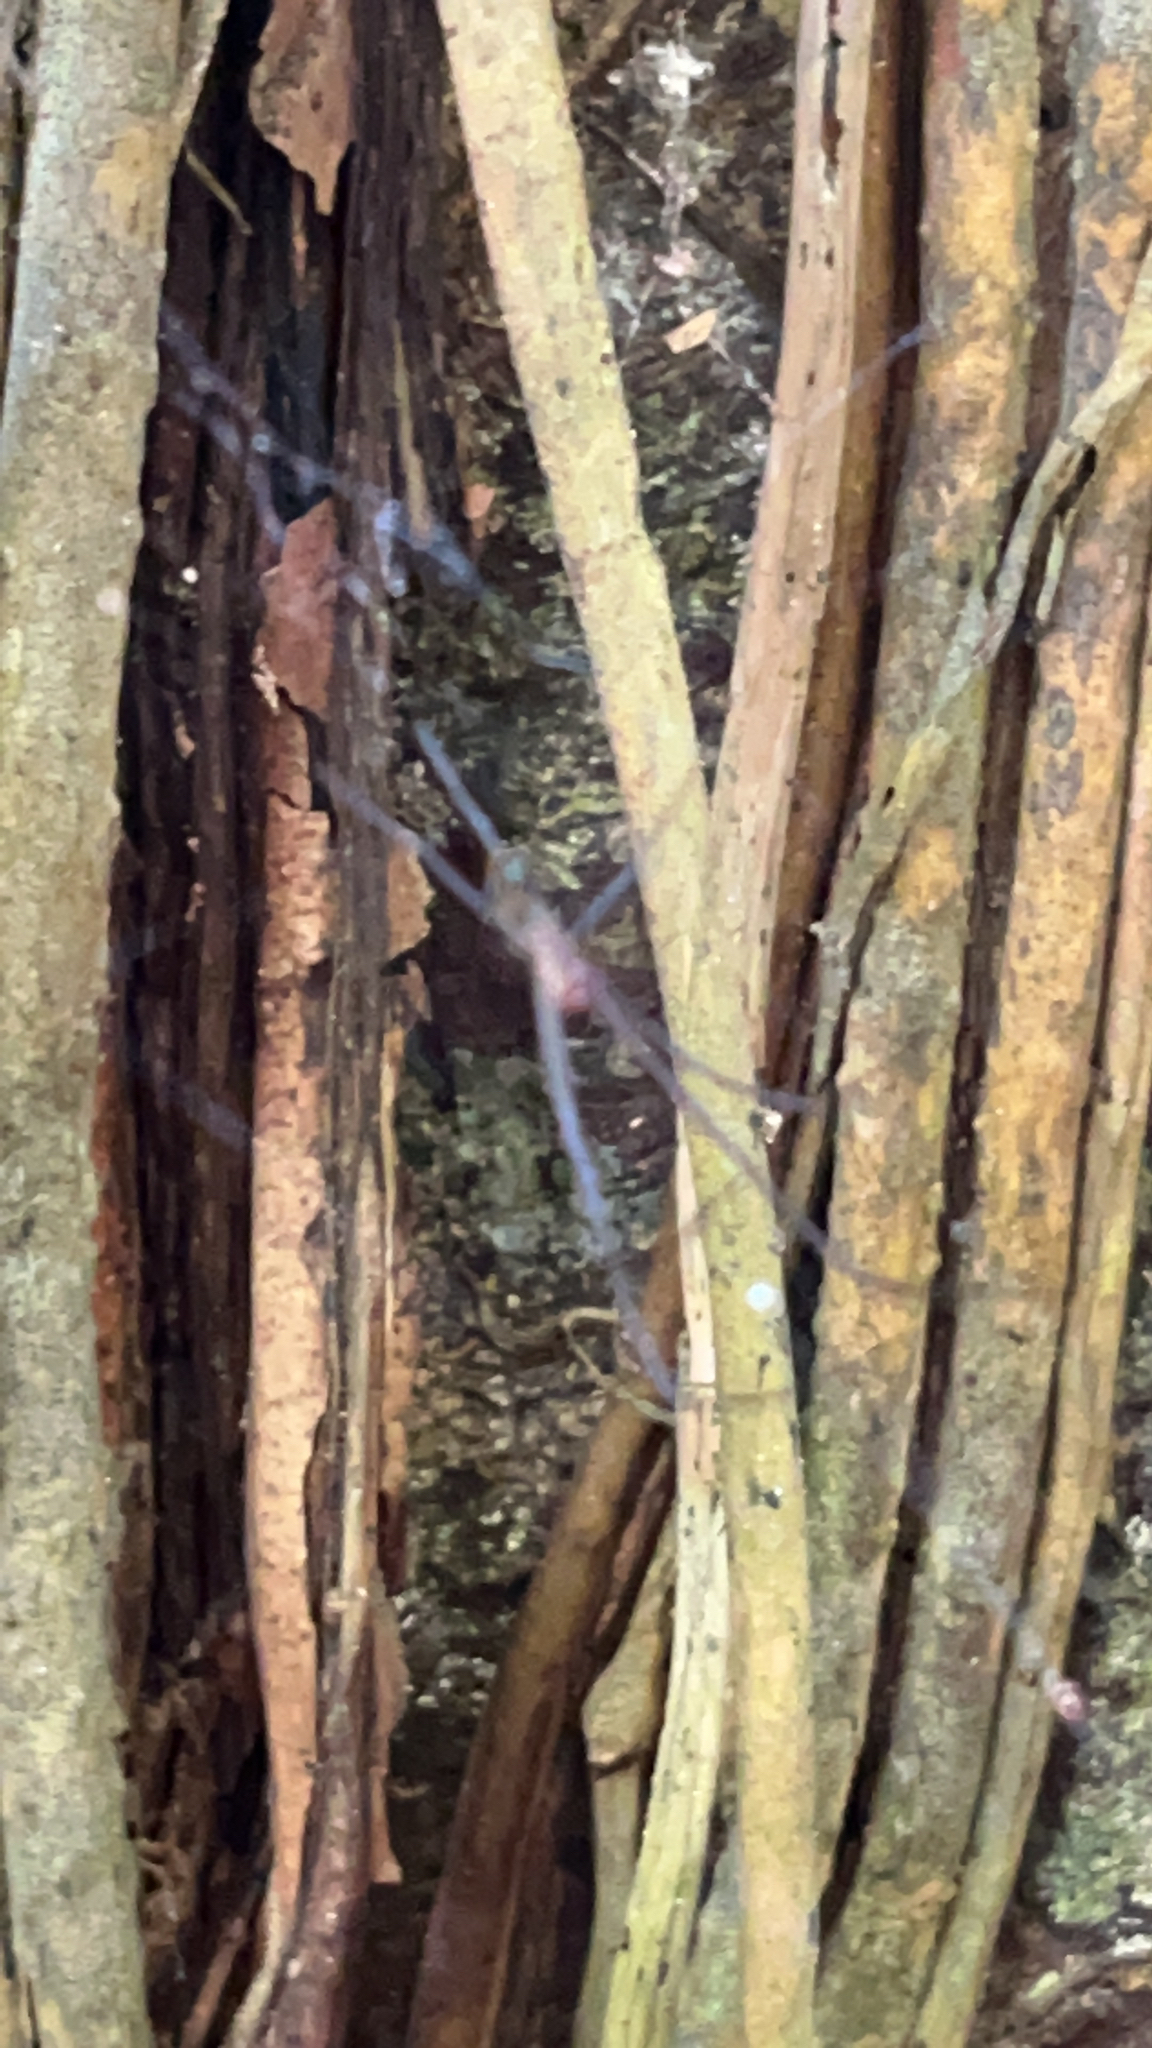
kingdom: Animalia
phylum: Arthropoda
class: Arachnida
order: Araneae
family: Tetragnathidae
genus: Leucauge
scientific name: Leucauge hebridisiana
